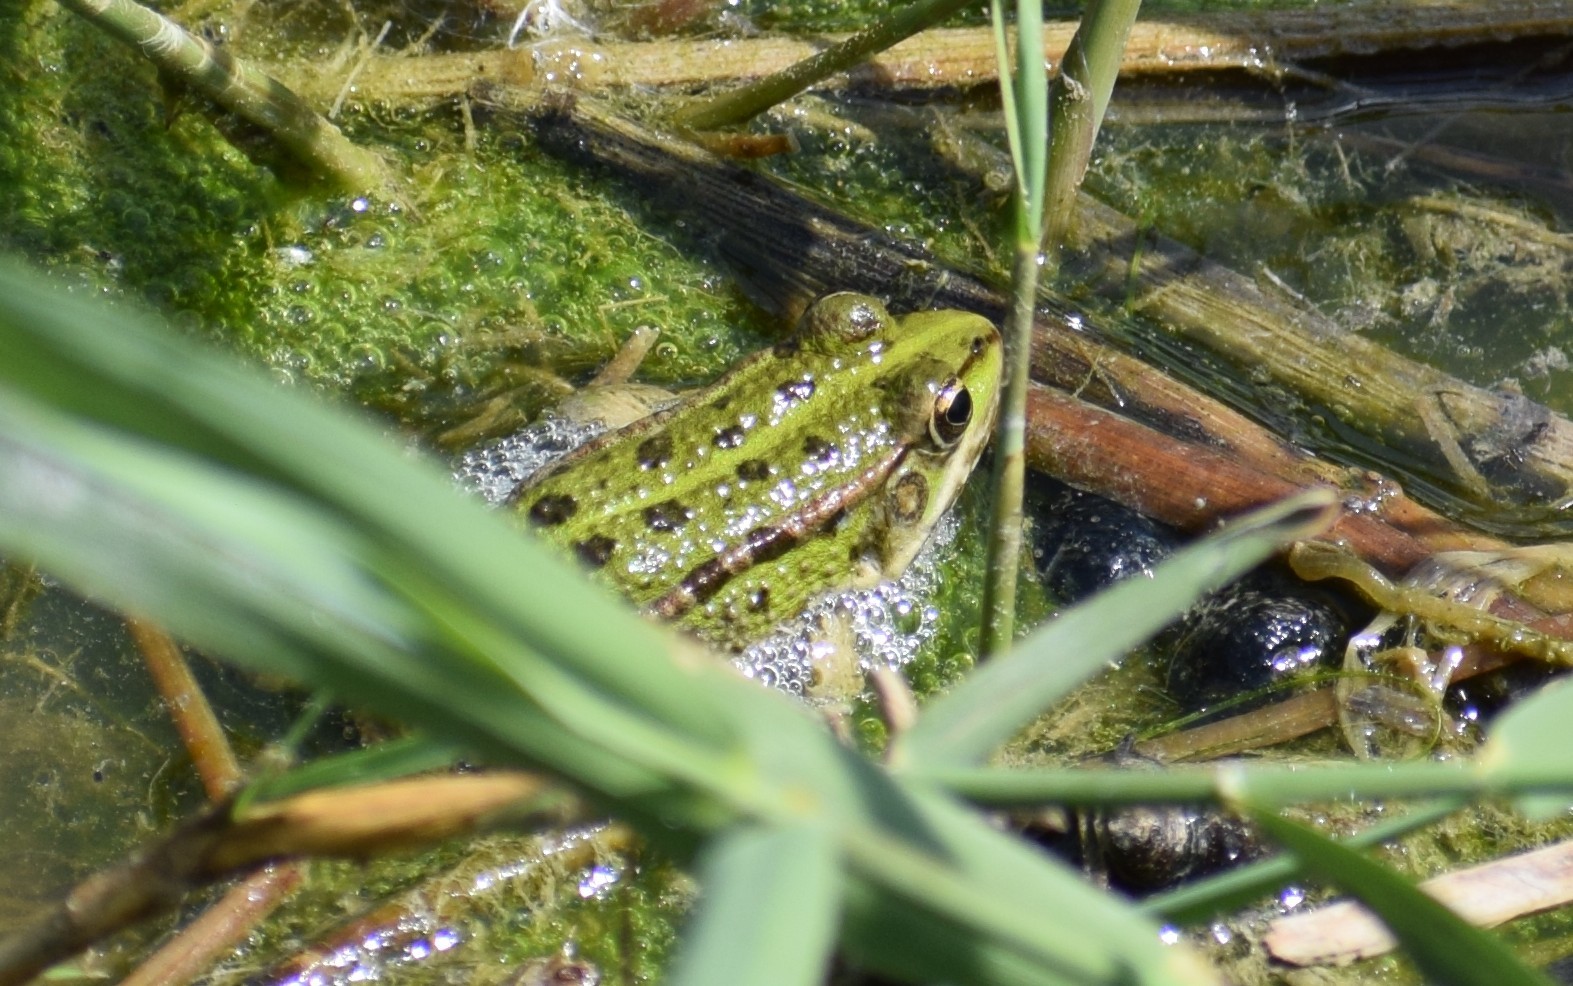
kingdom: Animalia
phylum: Chordata
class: Amphibia
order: Anura
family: Ranidae
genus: Pelophylax
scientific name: Pelophylax
